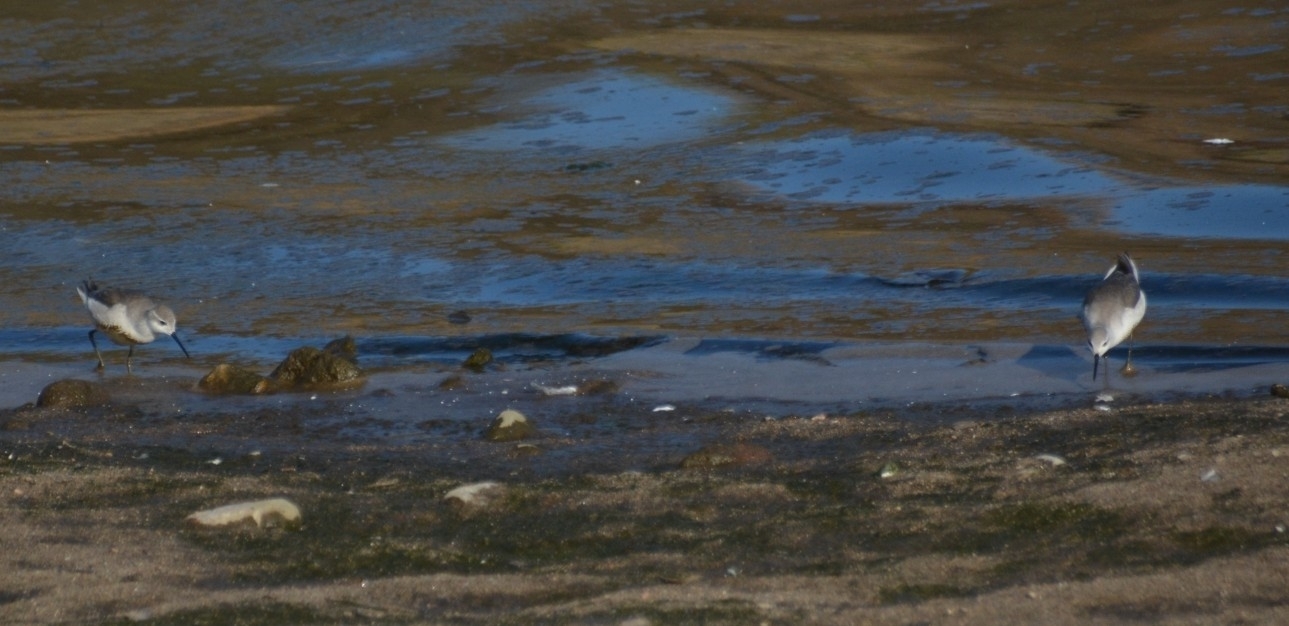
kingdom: Animalia
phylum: Chordata
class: Aves
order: Charadriiformes
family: Scolopacidae
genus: Phalaropus
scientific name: Phalaropus tricolor
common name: Wilson's phalarope
